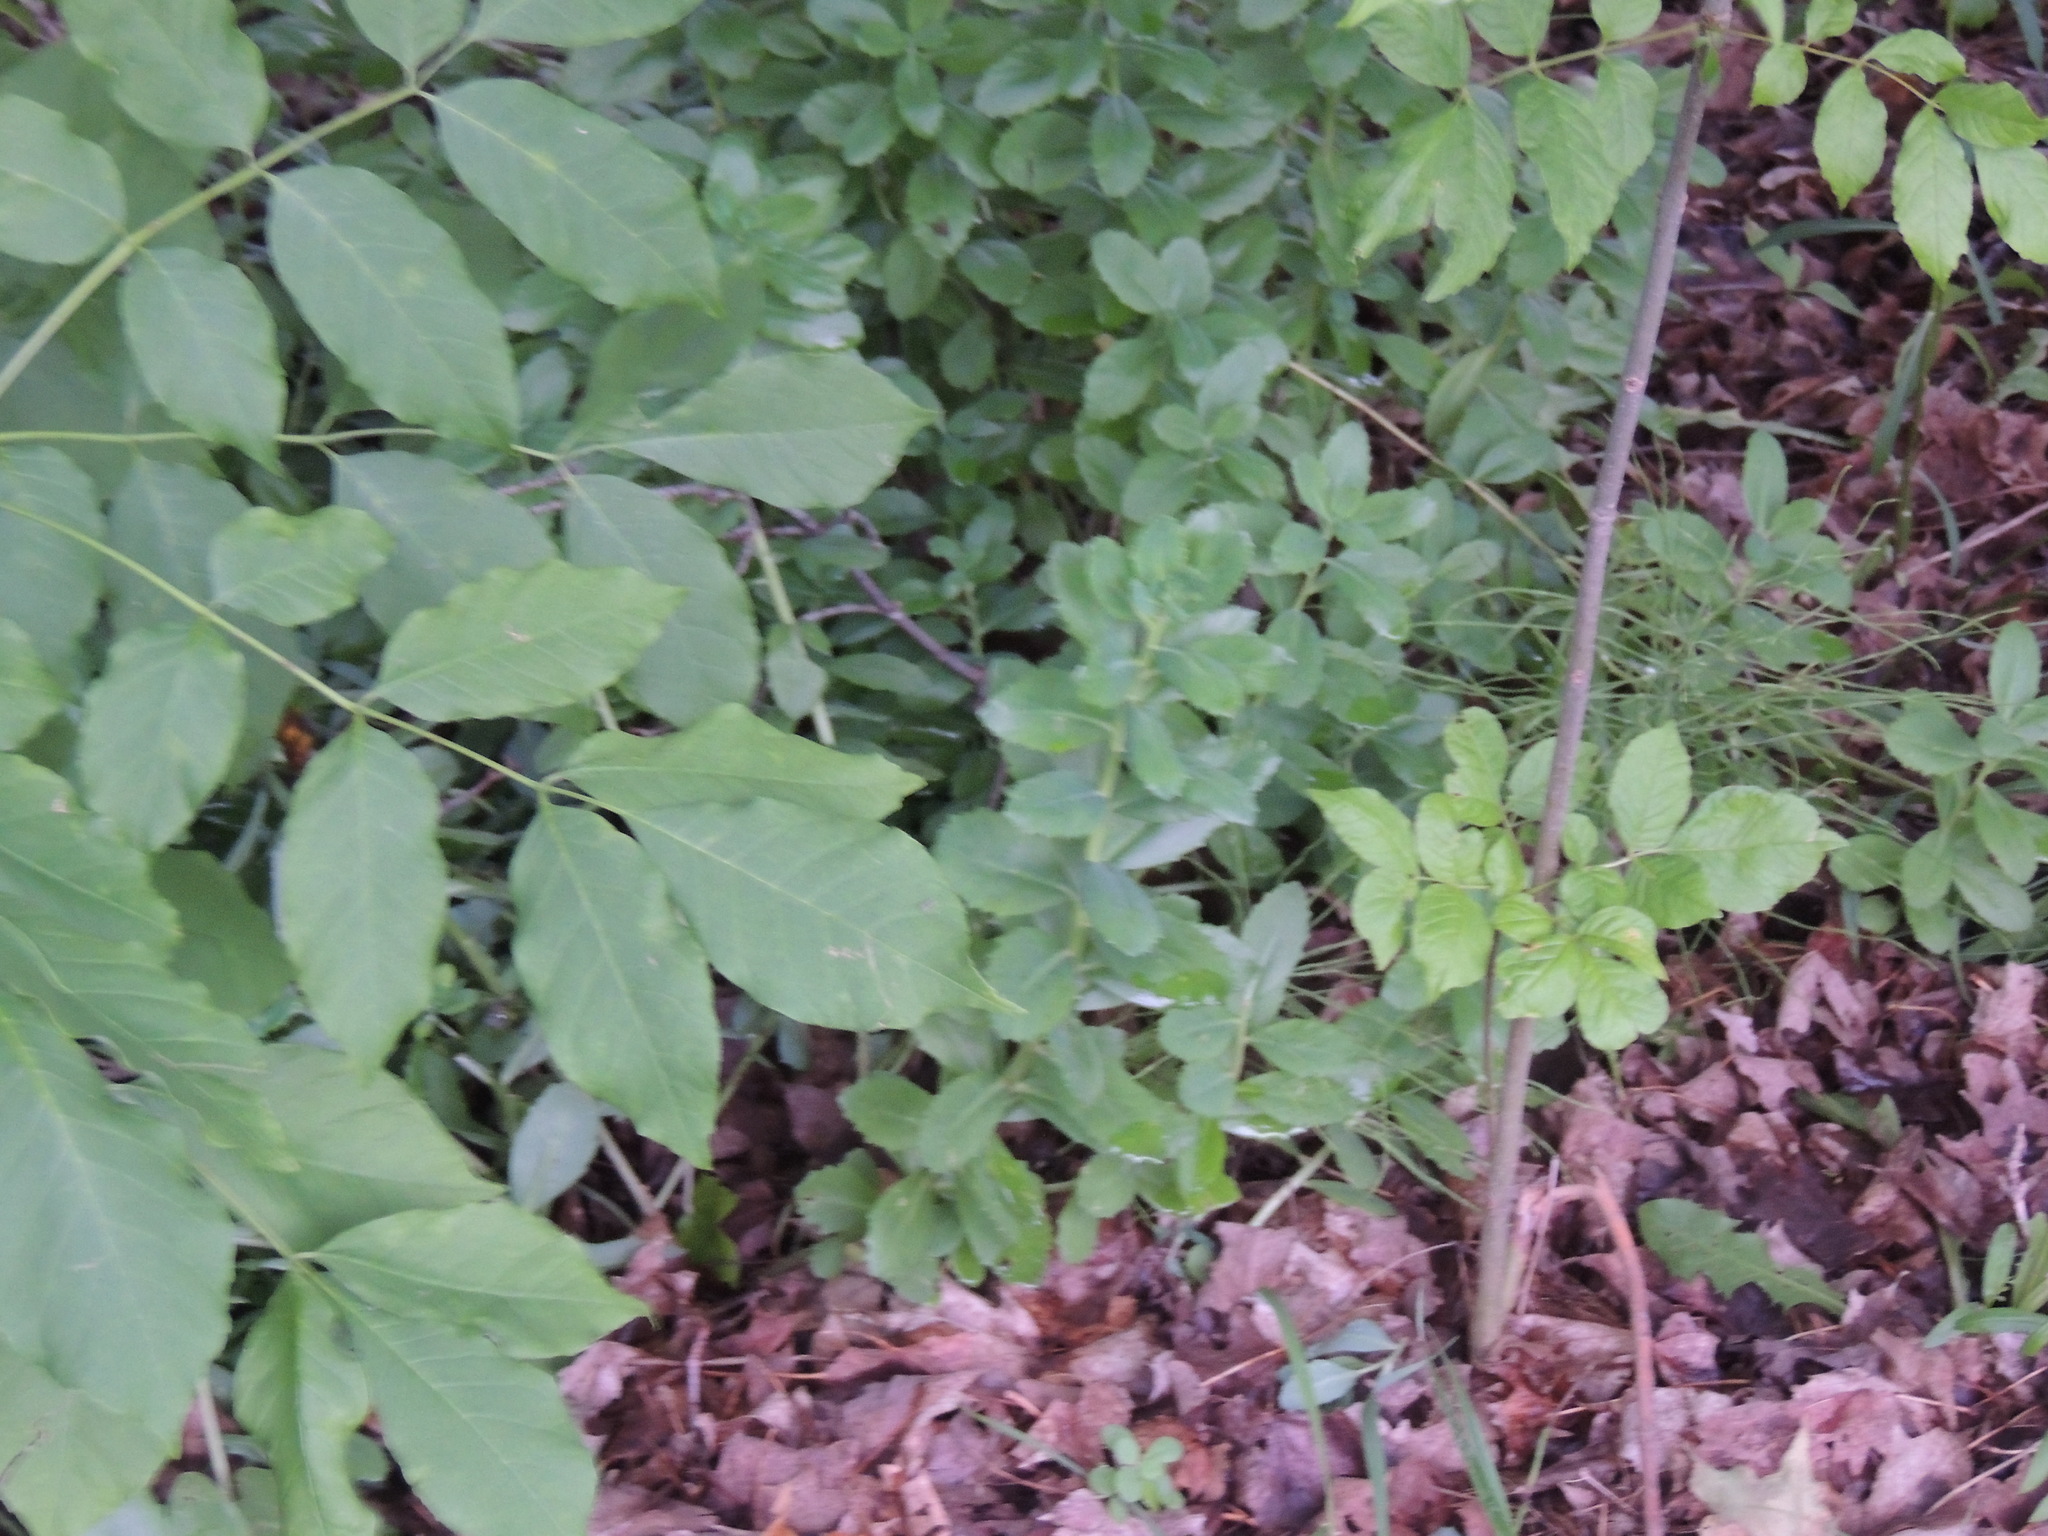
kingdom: Plantae
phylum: Tracheophyta
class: Magnoliopsida
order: Saxifragales
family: Crassulaceae
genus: Hylotelephium
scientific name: Hylotelephium telephium
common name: Live-forever
